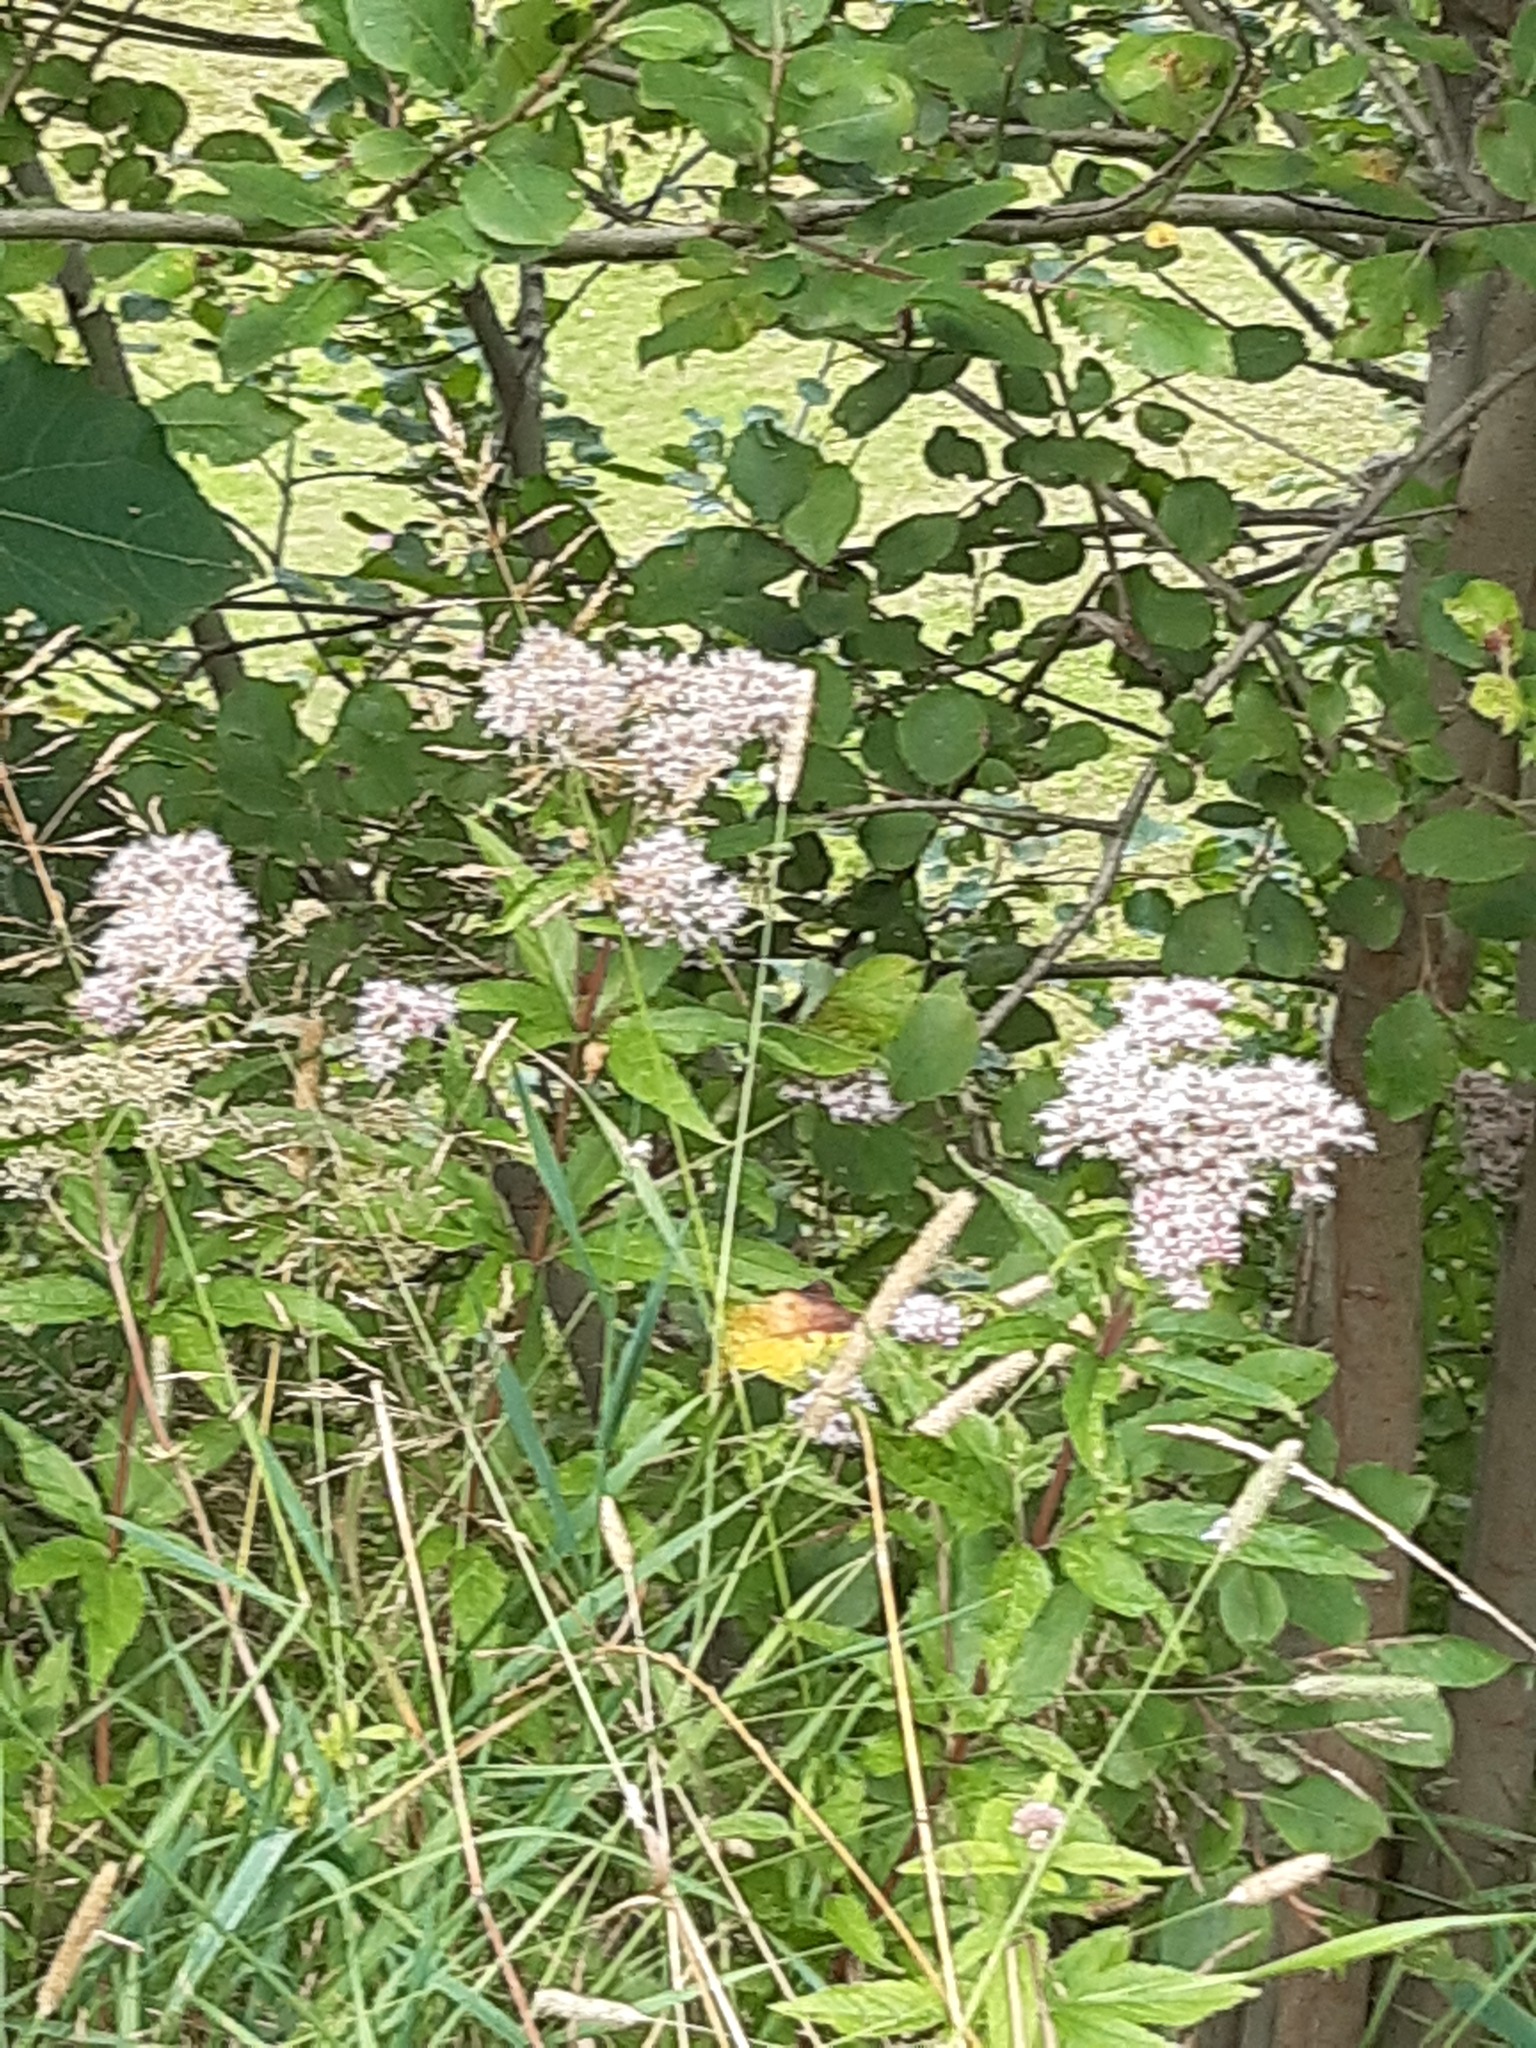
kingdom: Plantae
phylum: Tracheophyta
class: Magnoliopsida
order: Asterales
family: Asteraceae
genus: Eupatorium
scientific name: Eupatorium cannabinum
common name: Hemp-agrimony
